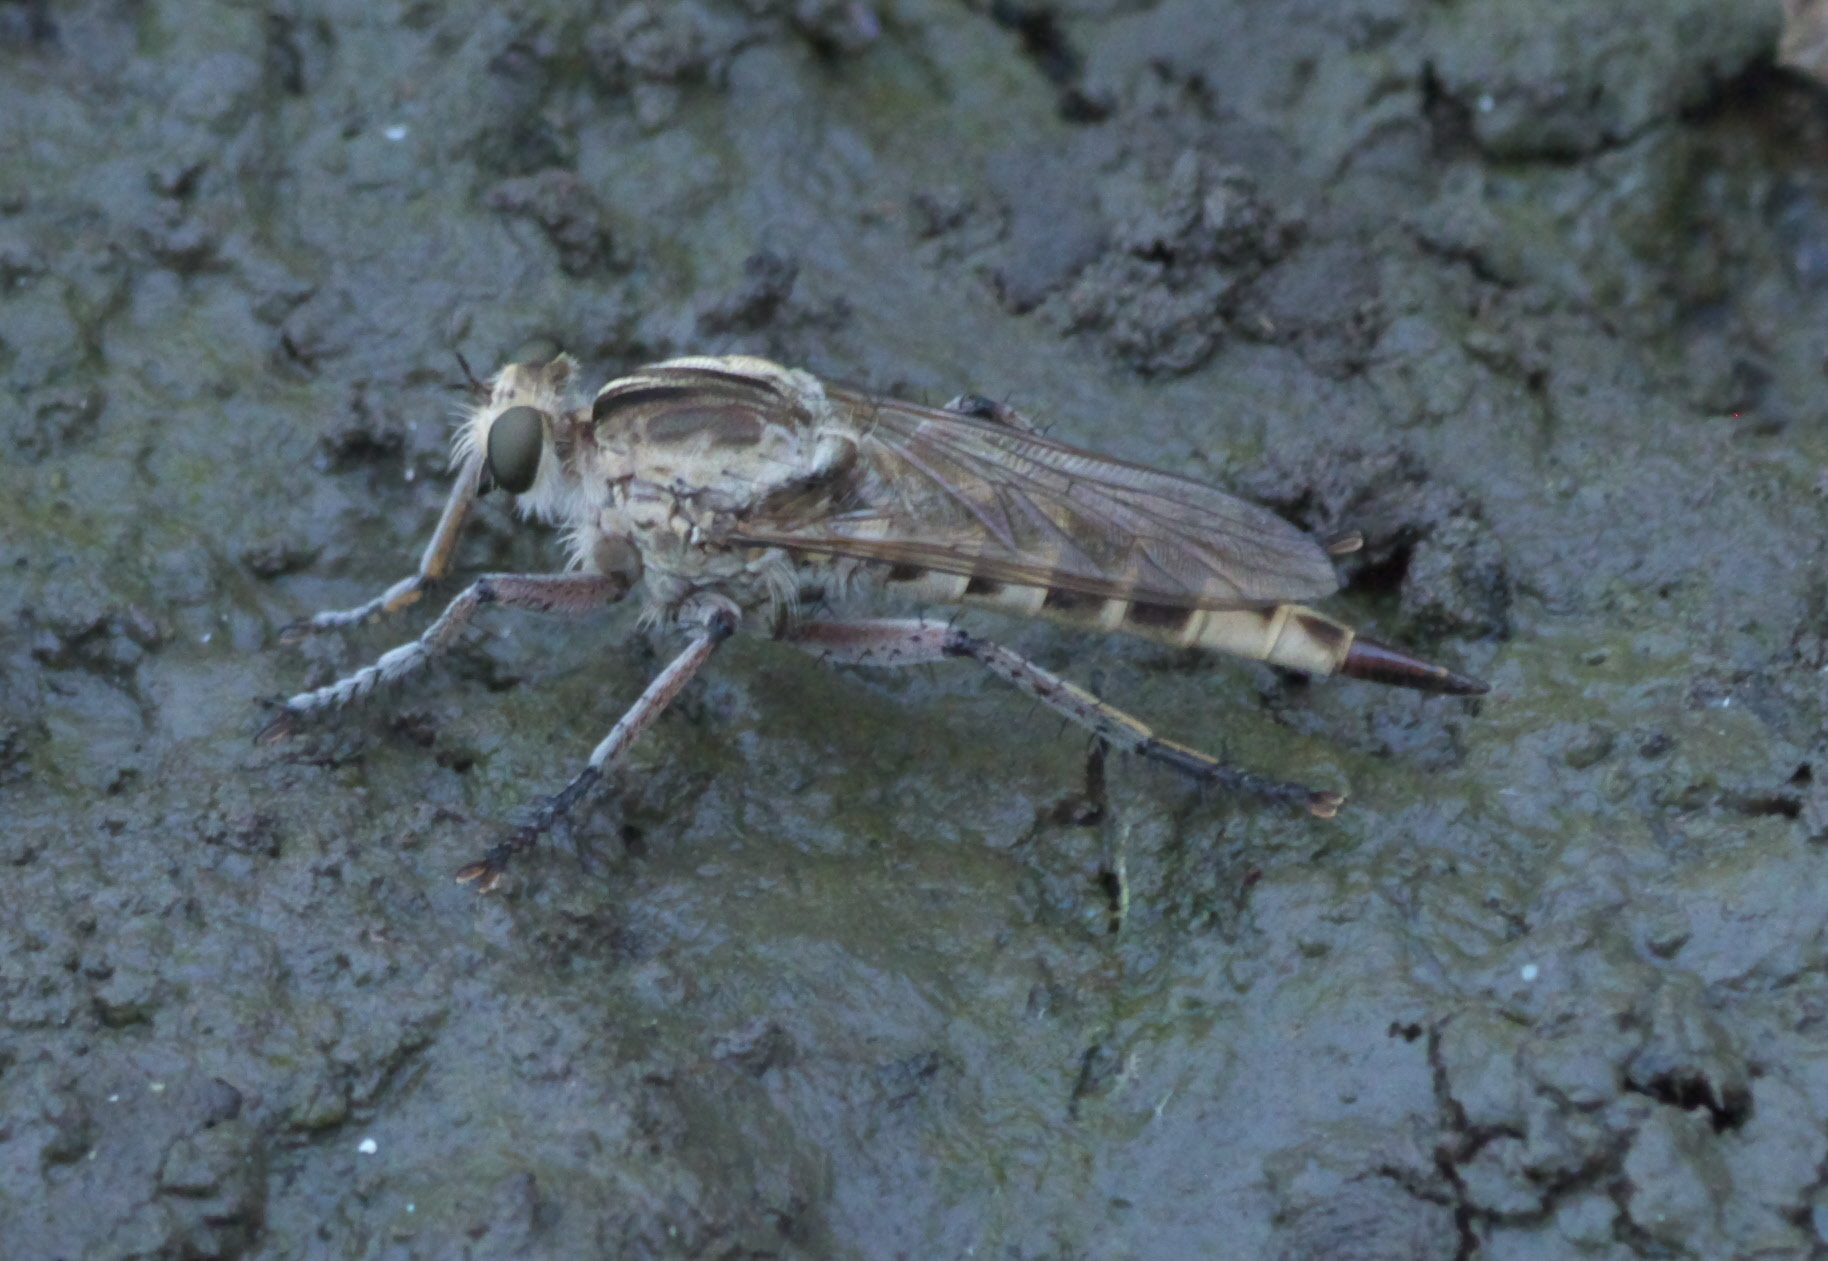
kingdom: Animalia
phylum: Arthropoda
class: Insecta
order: Diptera
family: Asilidae
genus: Triorla
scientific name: Triorla interrupta
